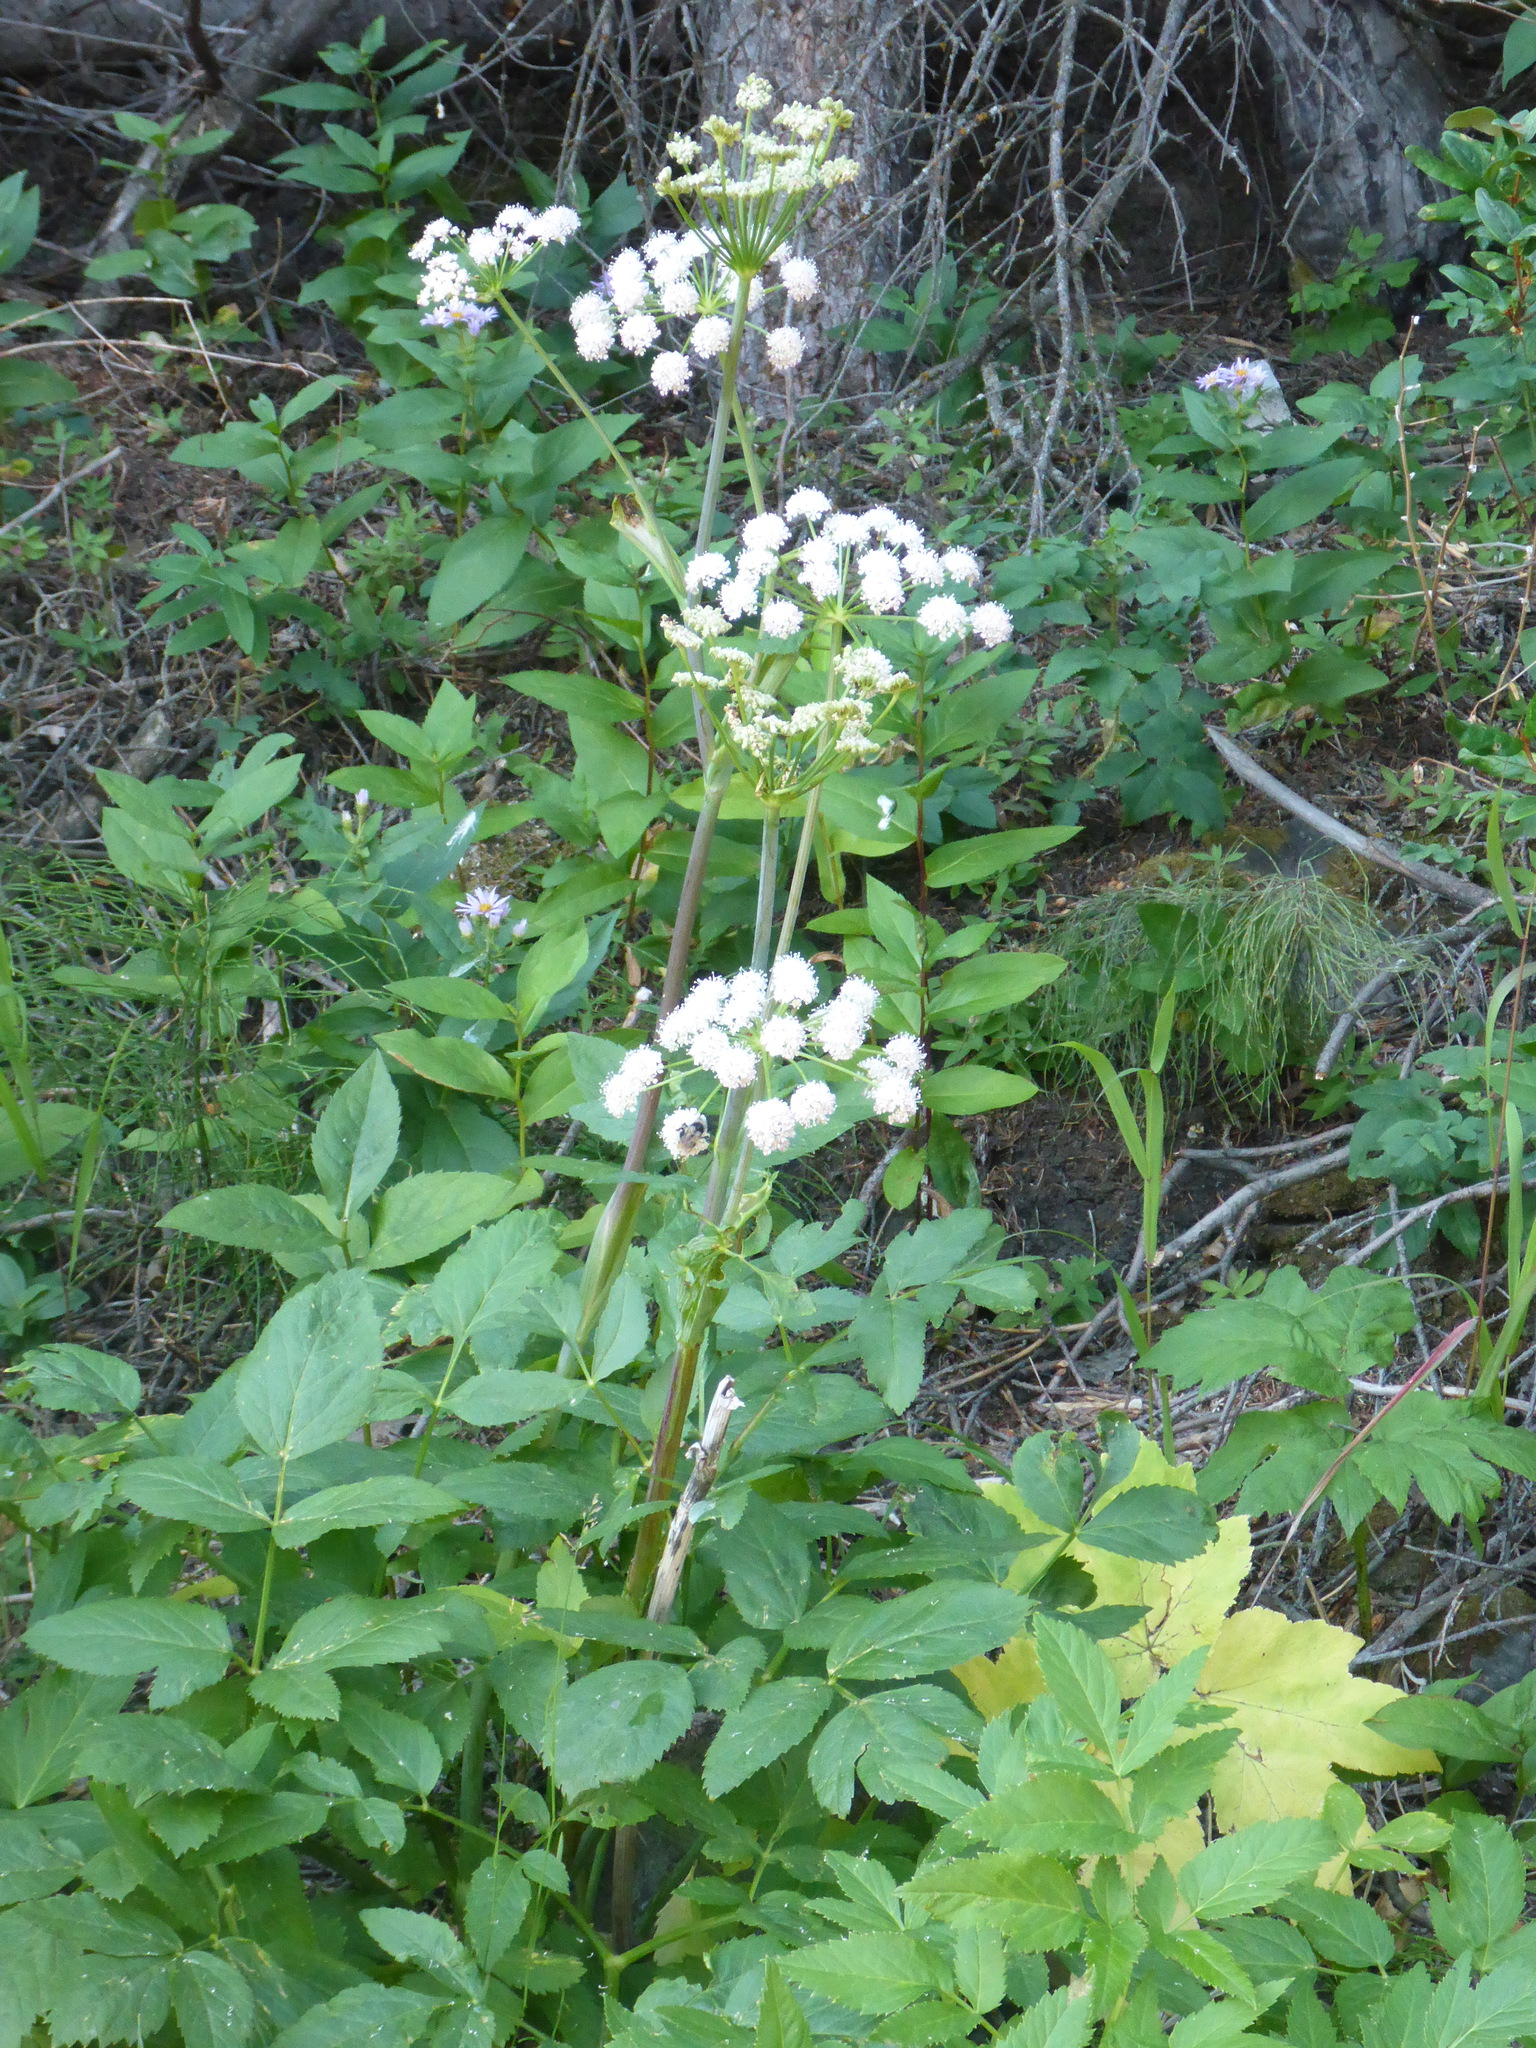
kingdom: Plantae
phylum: Tracheophyta
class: Magnoliopsida
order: Apiales
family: Apiaceae
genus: Angelica
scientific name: Angelica arguta
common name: Lyall's angelica
